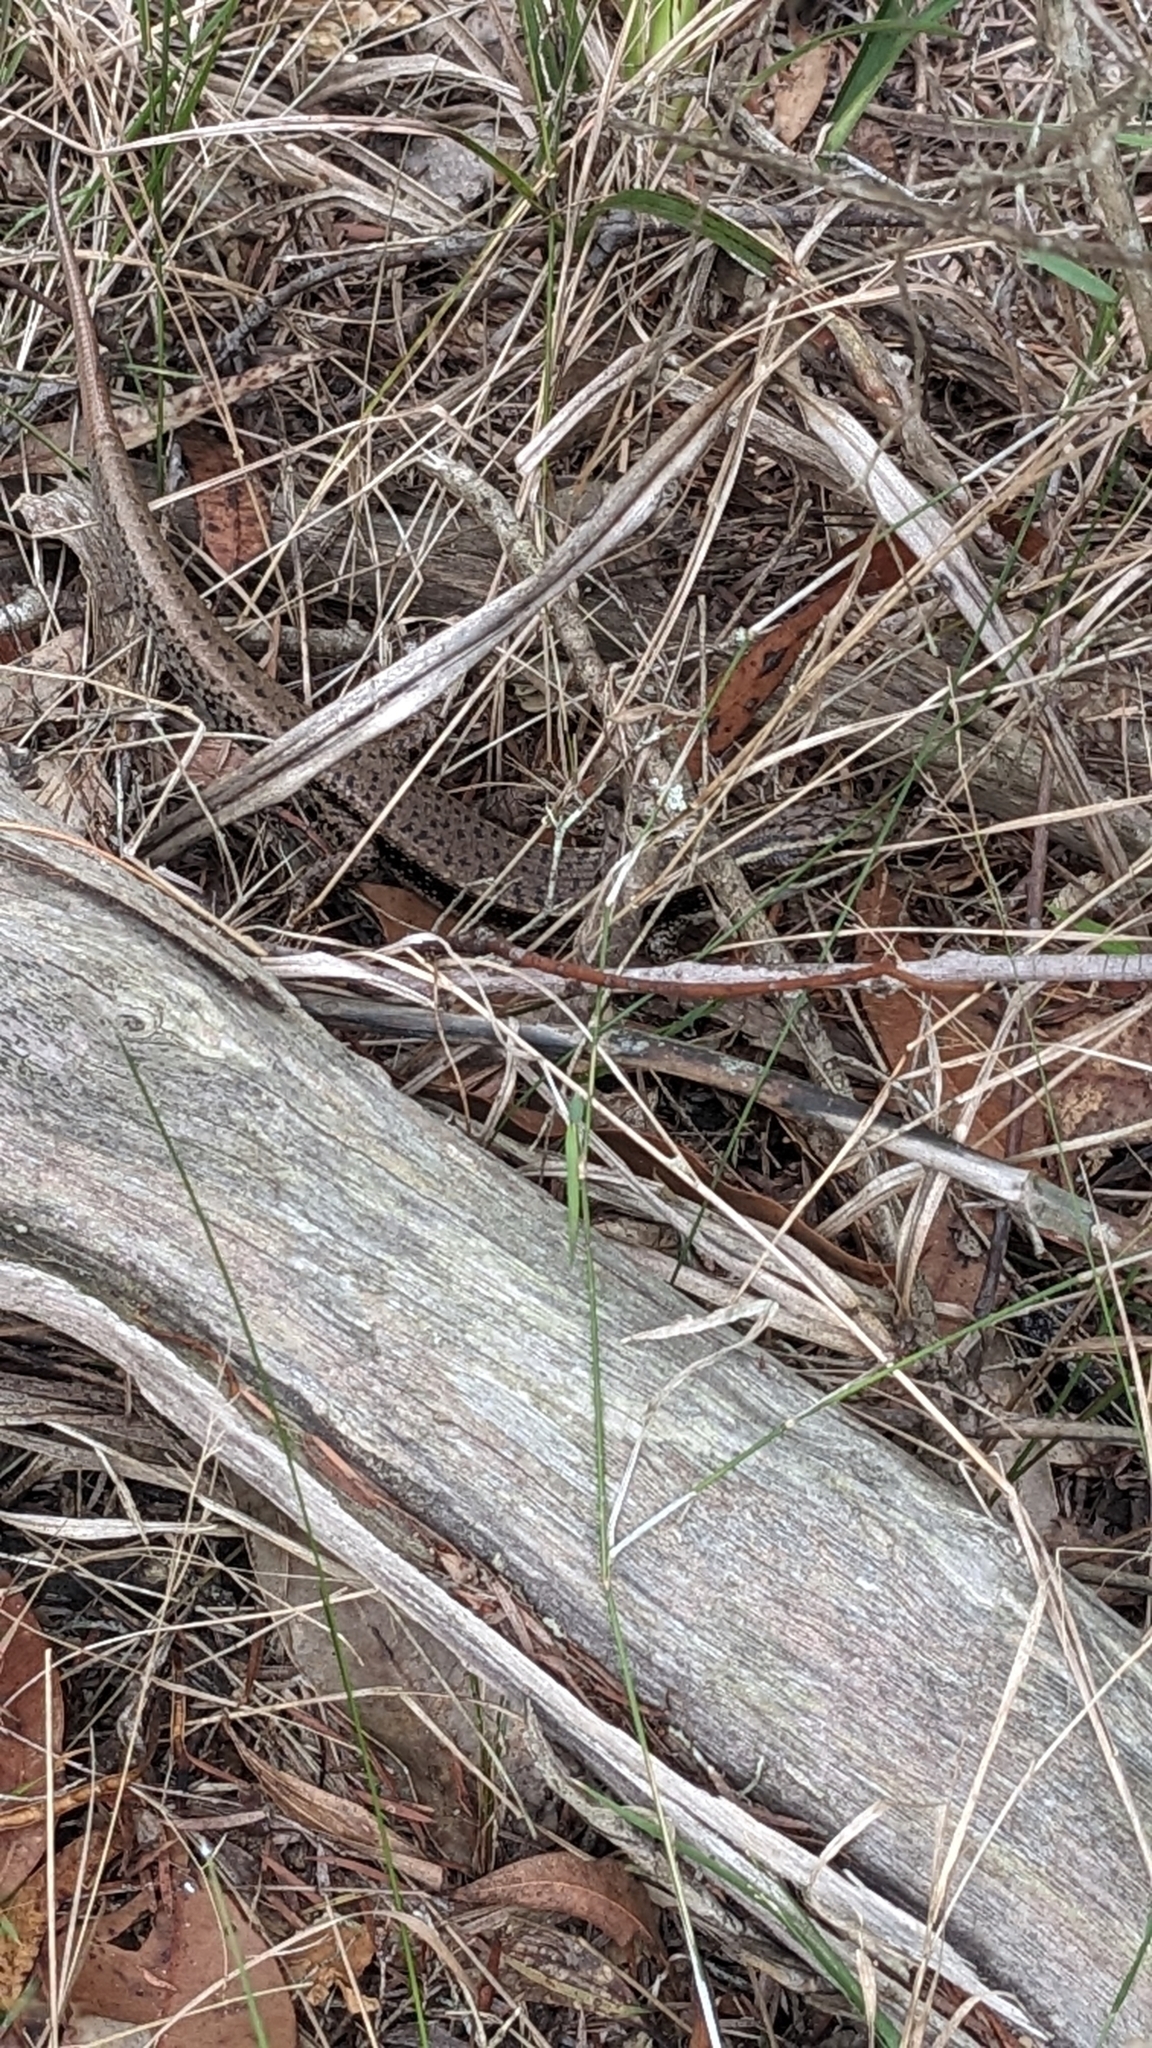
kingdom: Animalia
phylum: Chordata
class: Squamata
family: Scincidae
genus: Eulamprus
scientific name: Eulamprus quoyii
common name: Eastern water skink
